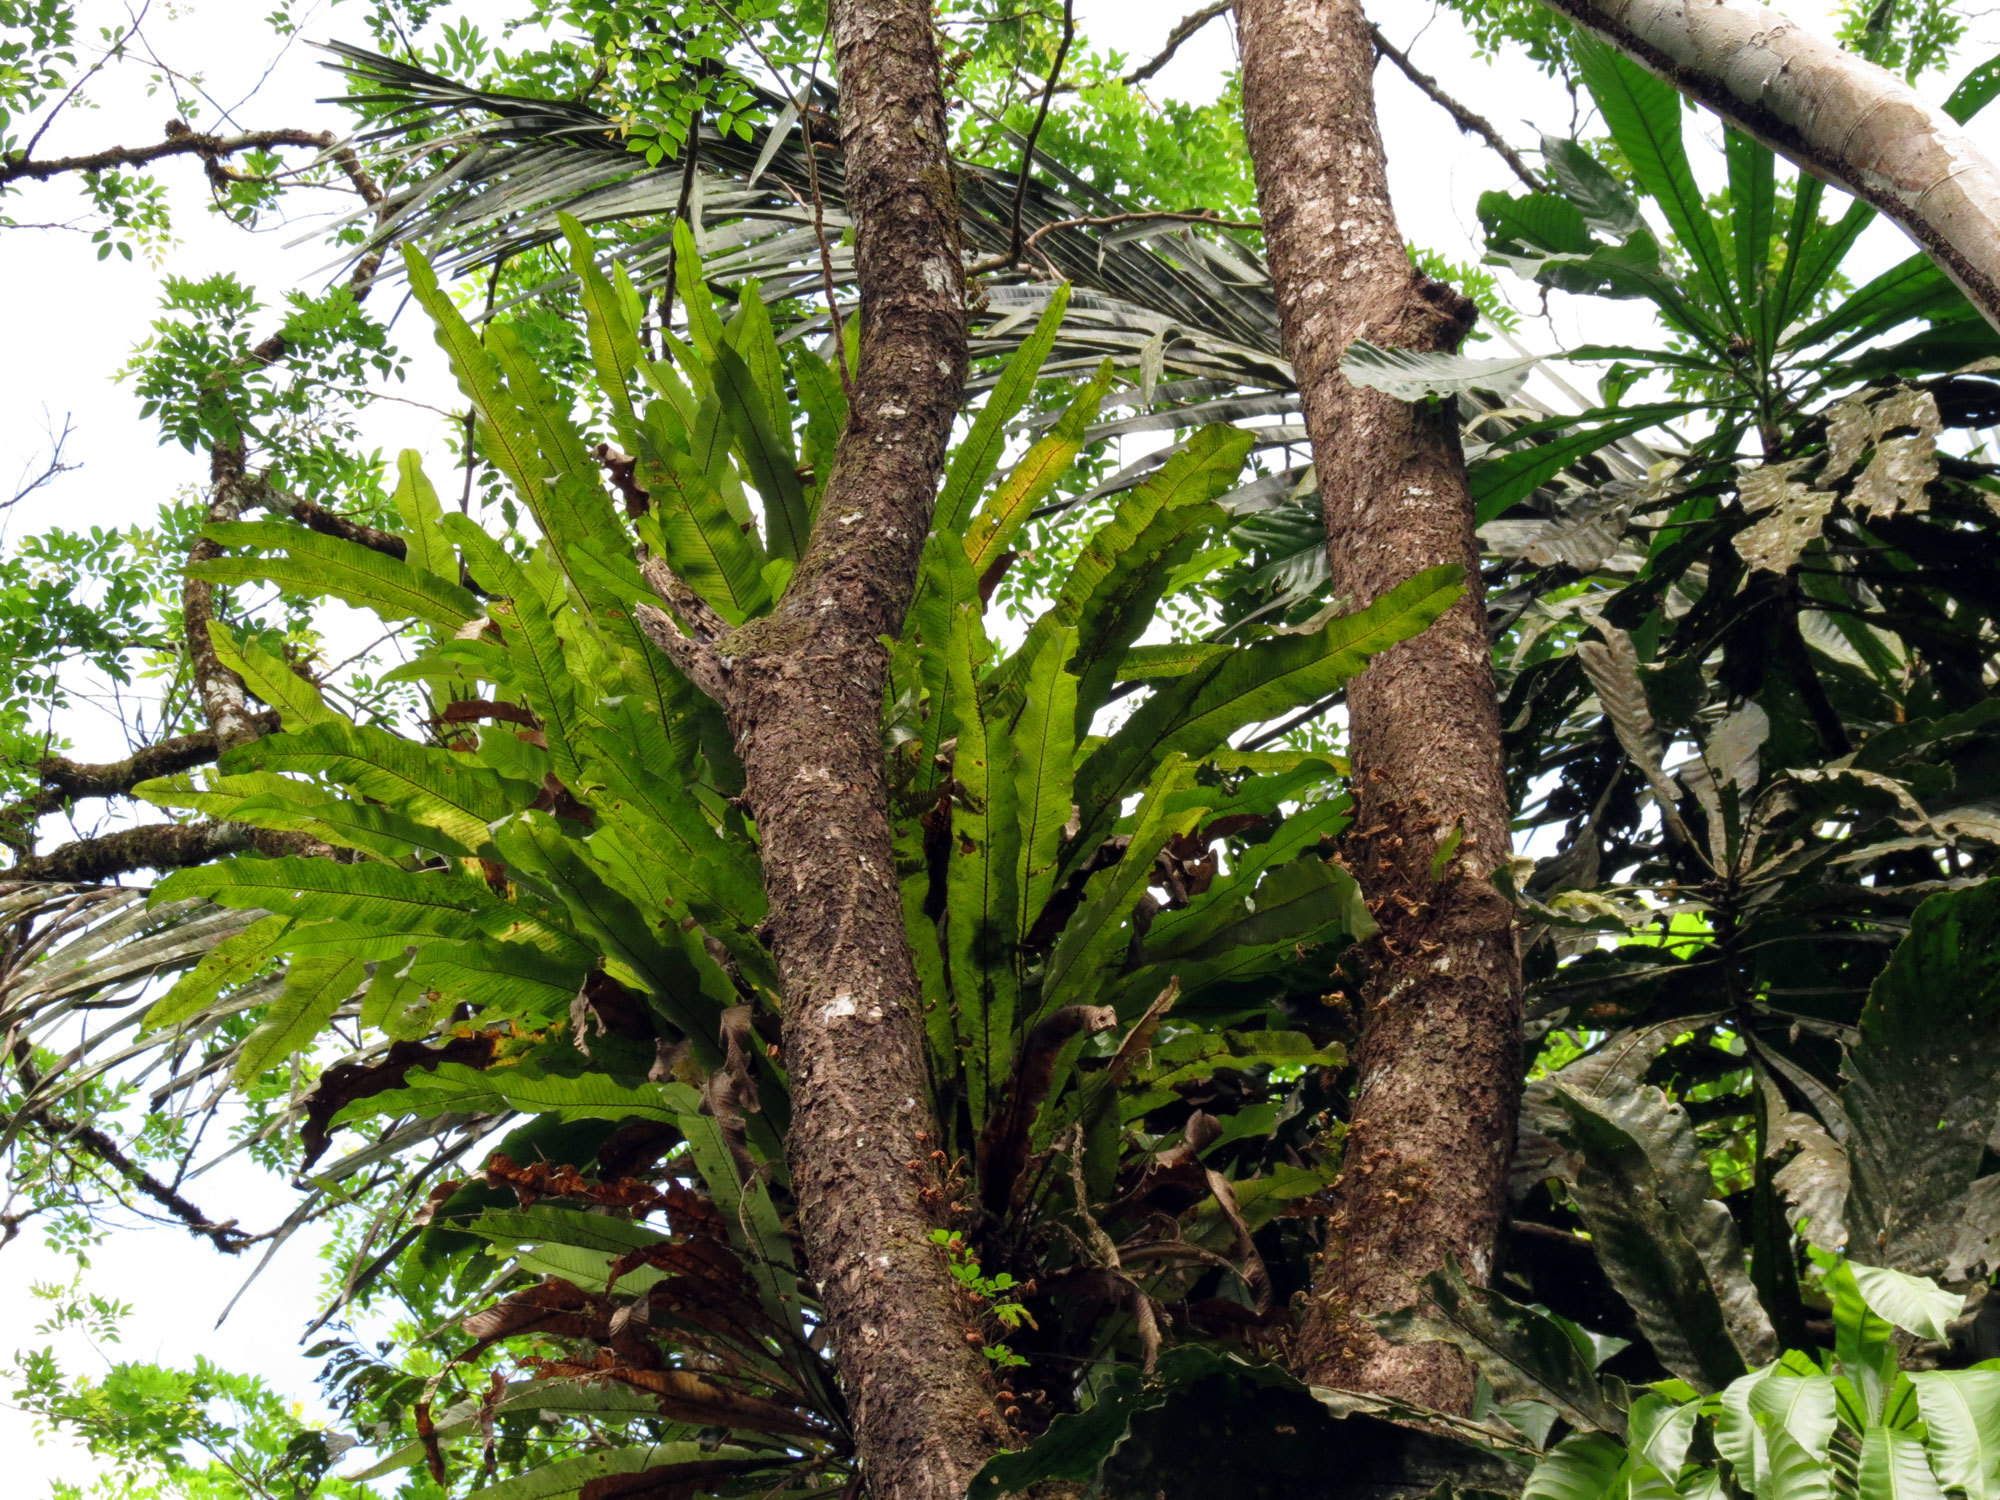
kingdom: Plantae
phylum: Tracheophyta
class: Polypodiopsida
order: Polypodiales
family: Polypodiaceae
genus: Niphidium
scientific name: Niphidium crassifolium
